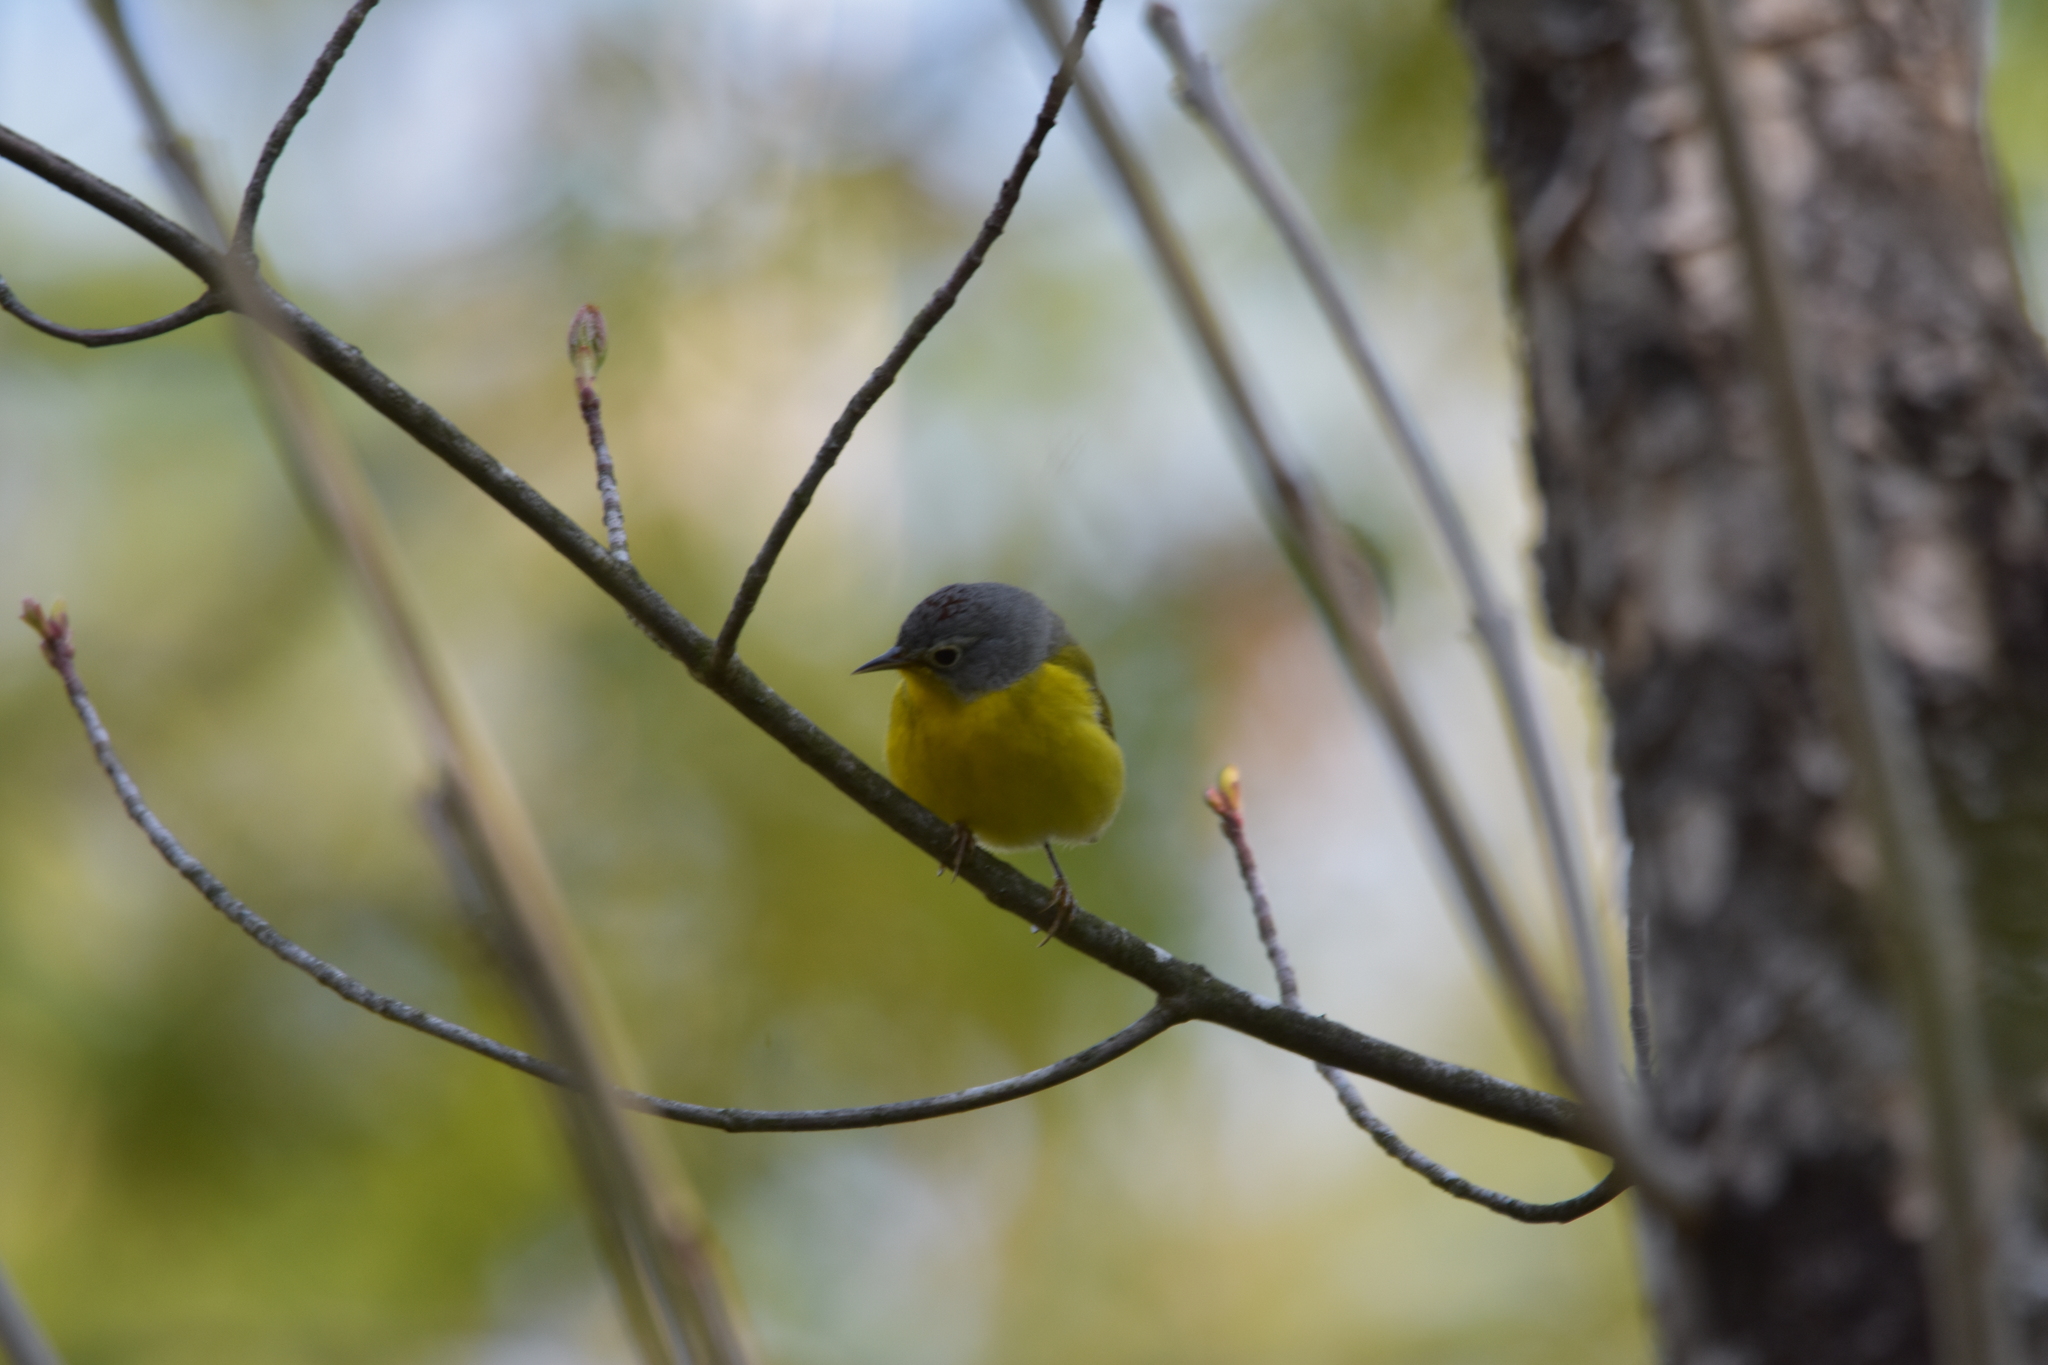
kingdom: Animalia
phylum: Chordata
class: Aves
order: Passeriformes
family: Parulidae
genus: Leiothlypis
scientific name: Leiothlypis ruficapilla
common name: Nashville warbler
